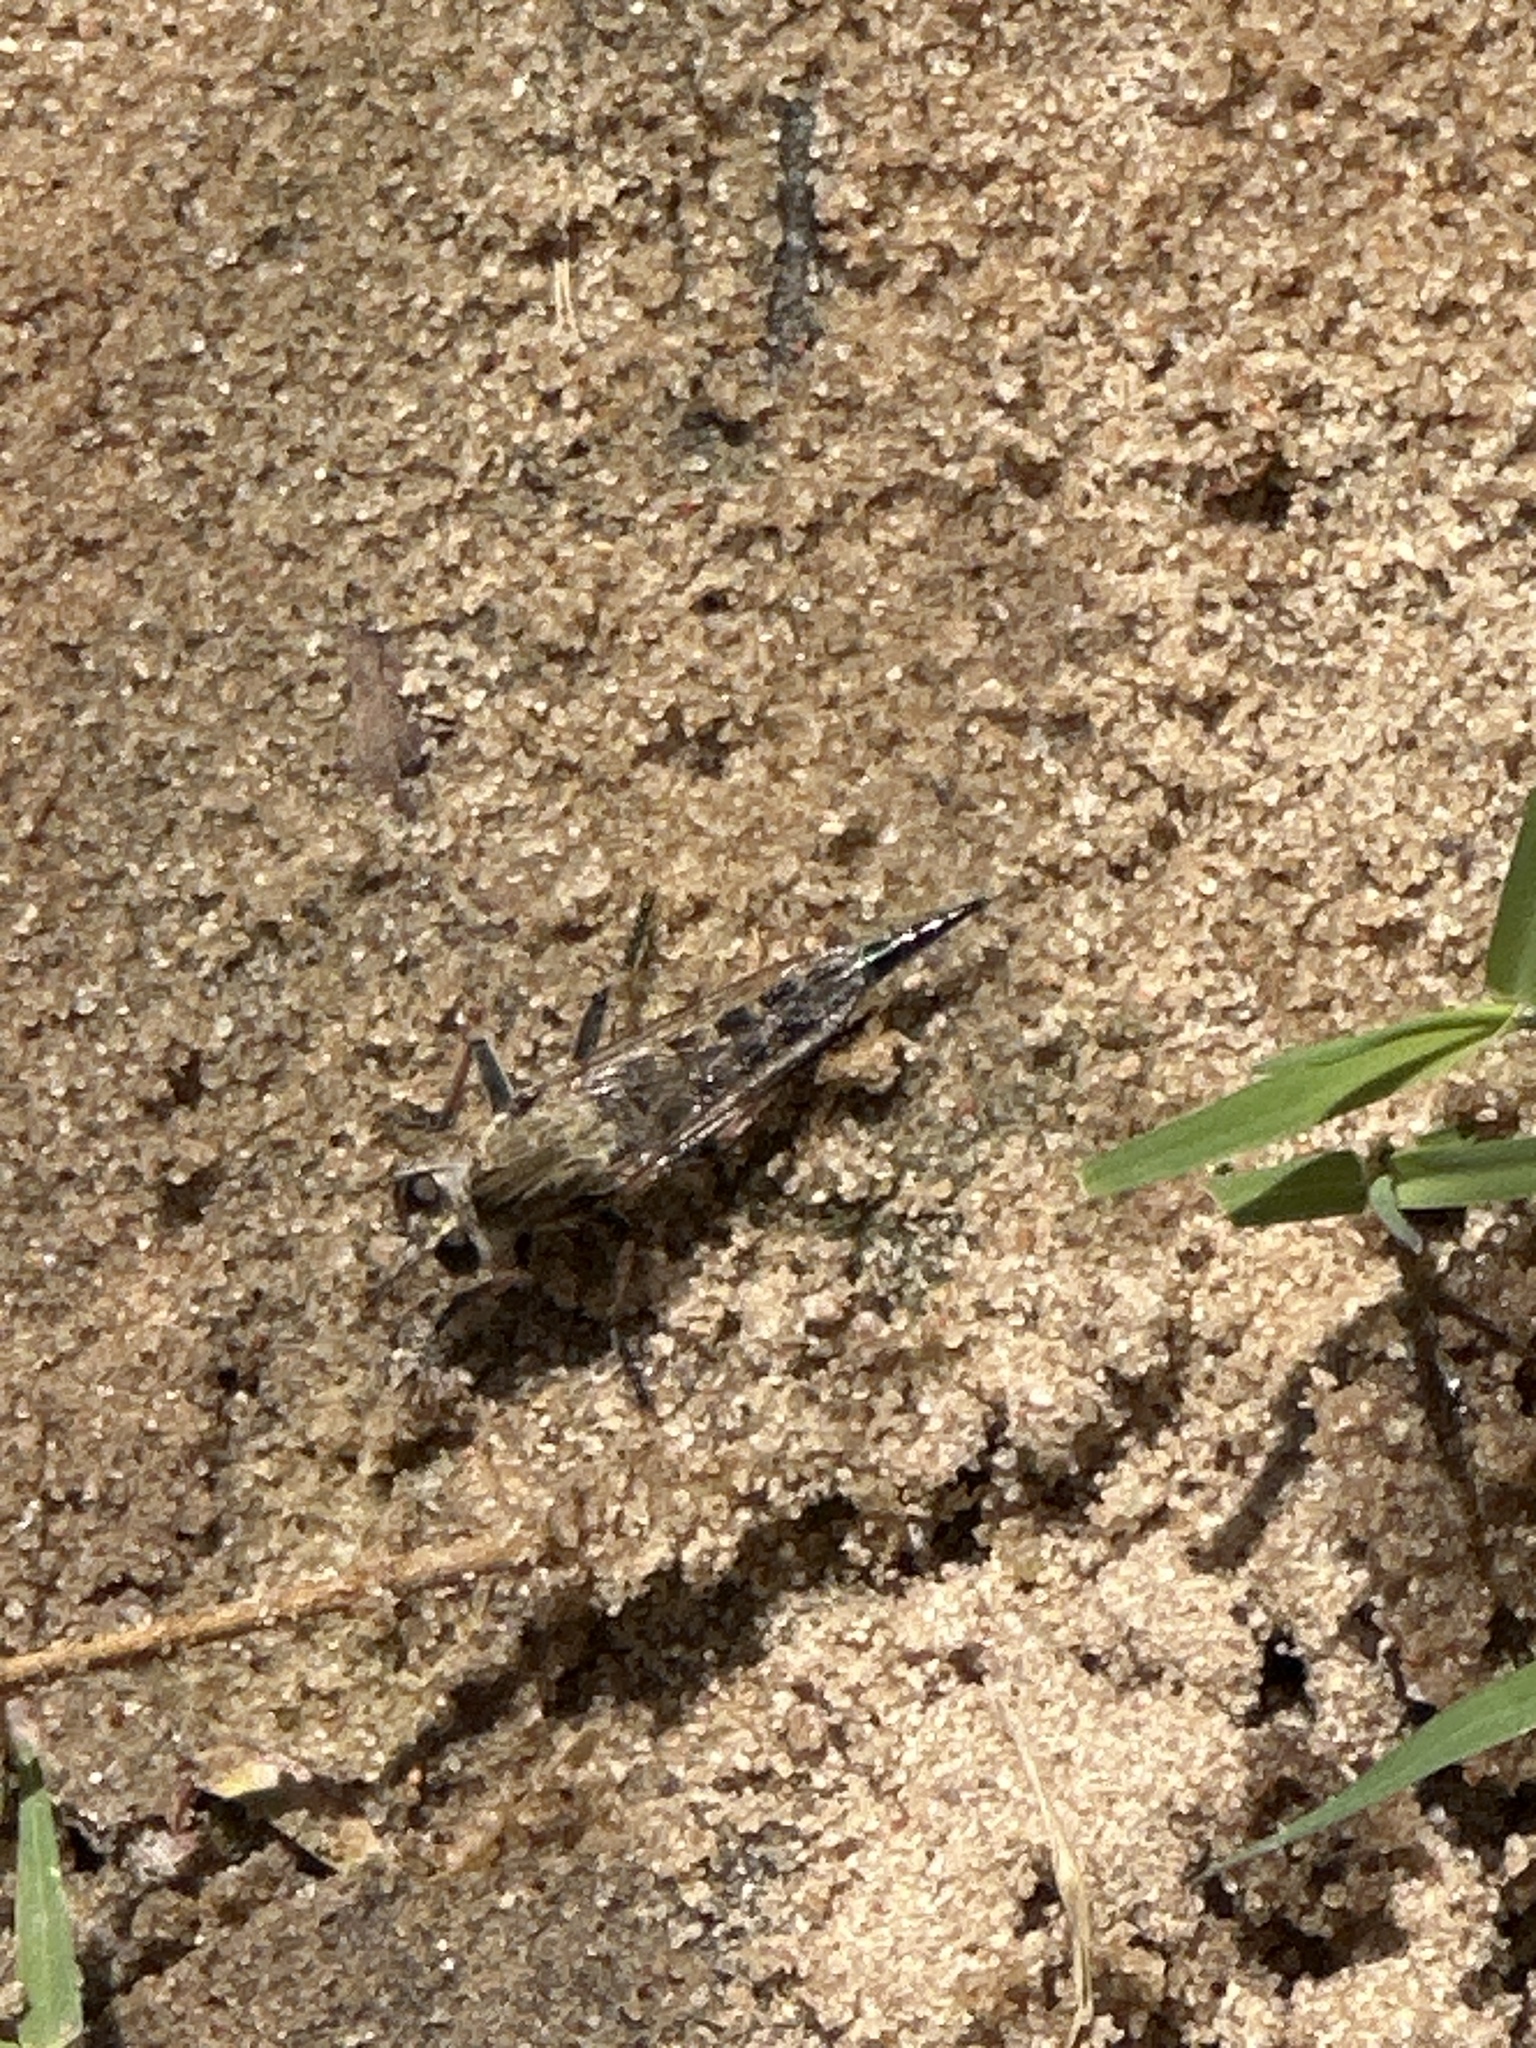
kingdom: Animalia
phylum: Arthropoda
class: Insecta
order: Diptera
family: Asilidae
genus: Efferia
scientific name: Efferia albibarbis
